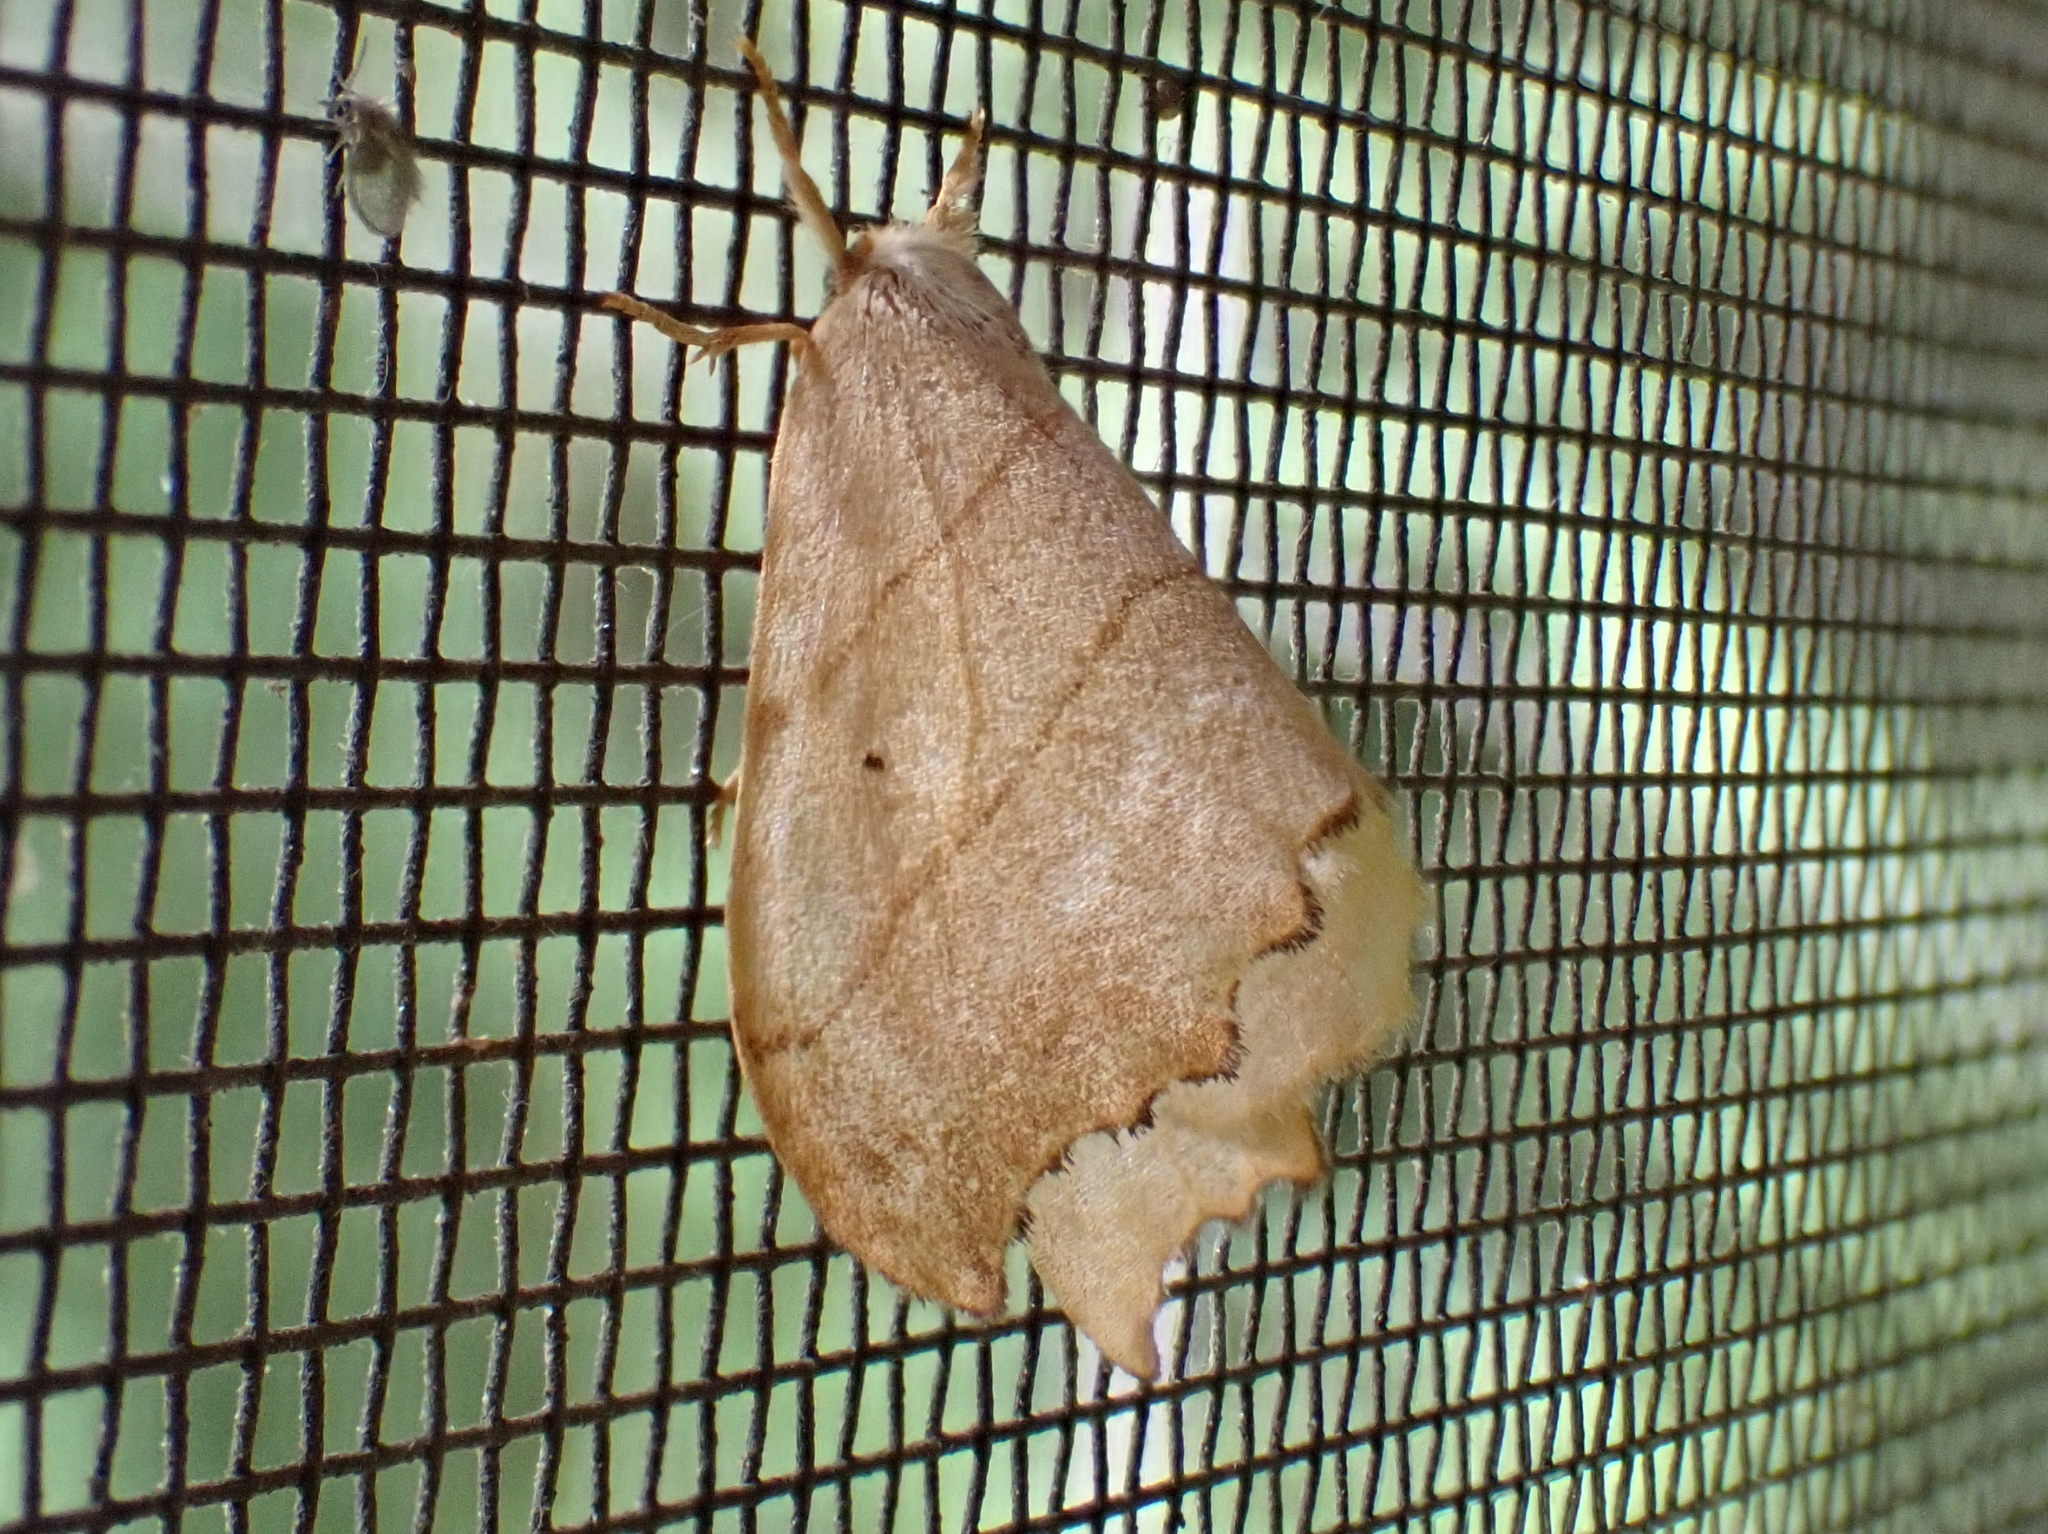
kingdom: Animalia
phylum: Arthropoda
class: Insecta
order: Lepidoptera
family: Drepanidae
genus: Falcaria
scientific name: Falcaria bilineata
